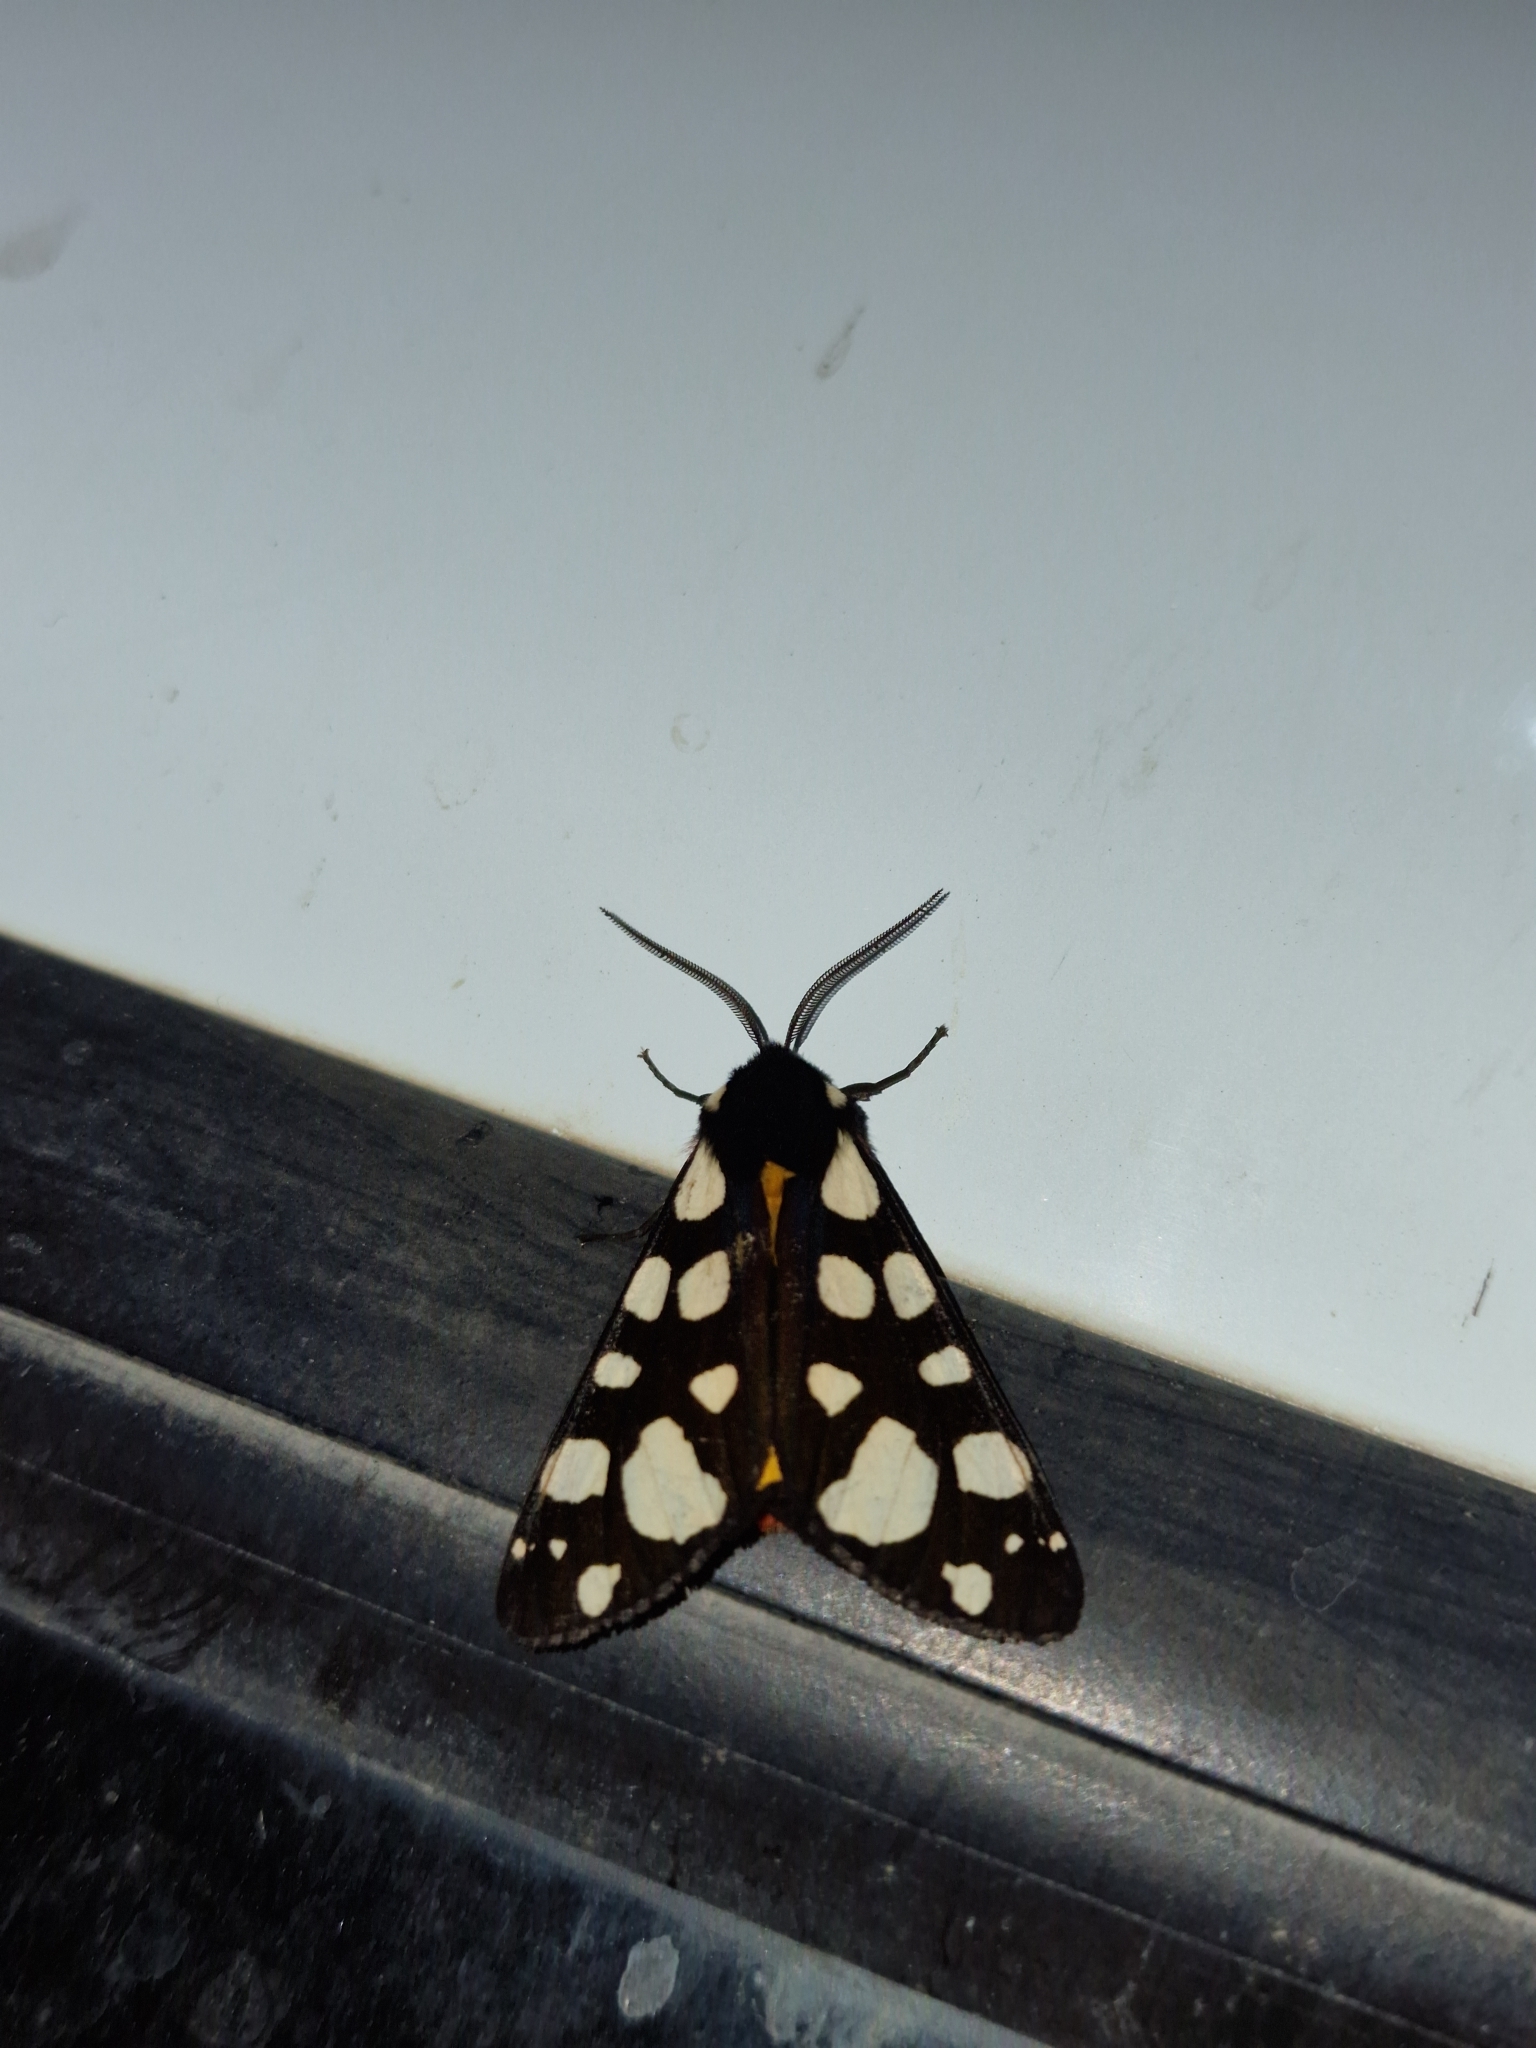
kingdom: Animalia
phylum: Arthropoda
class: Insecta
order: Lepidoptera
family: Erebidae
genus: Epicallia
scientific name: Epicallia villica
